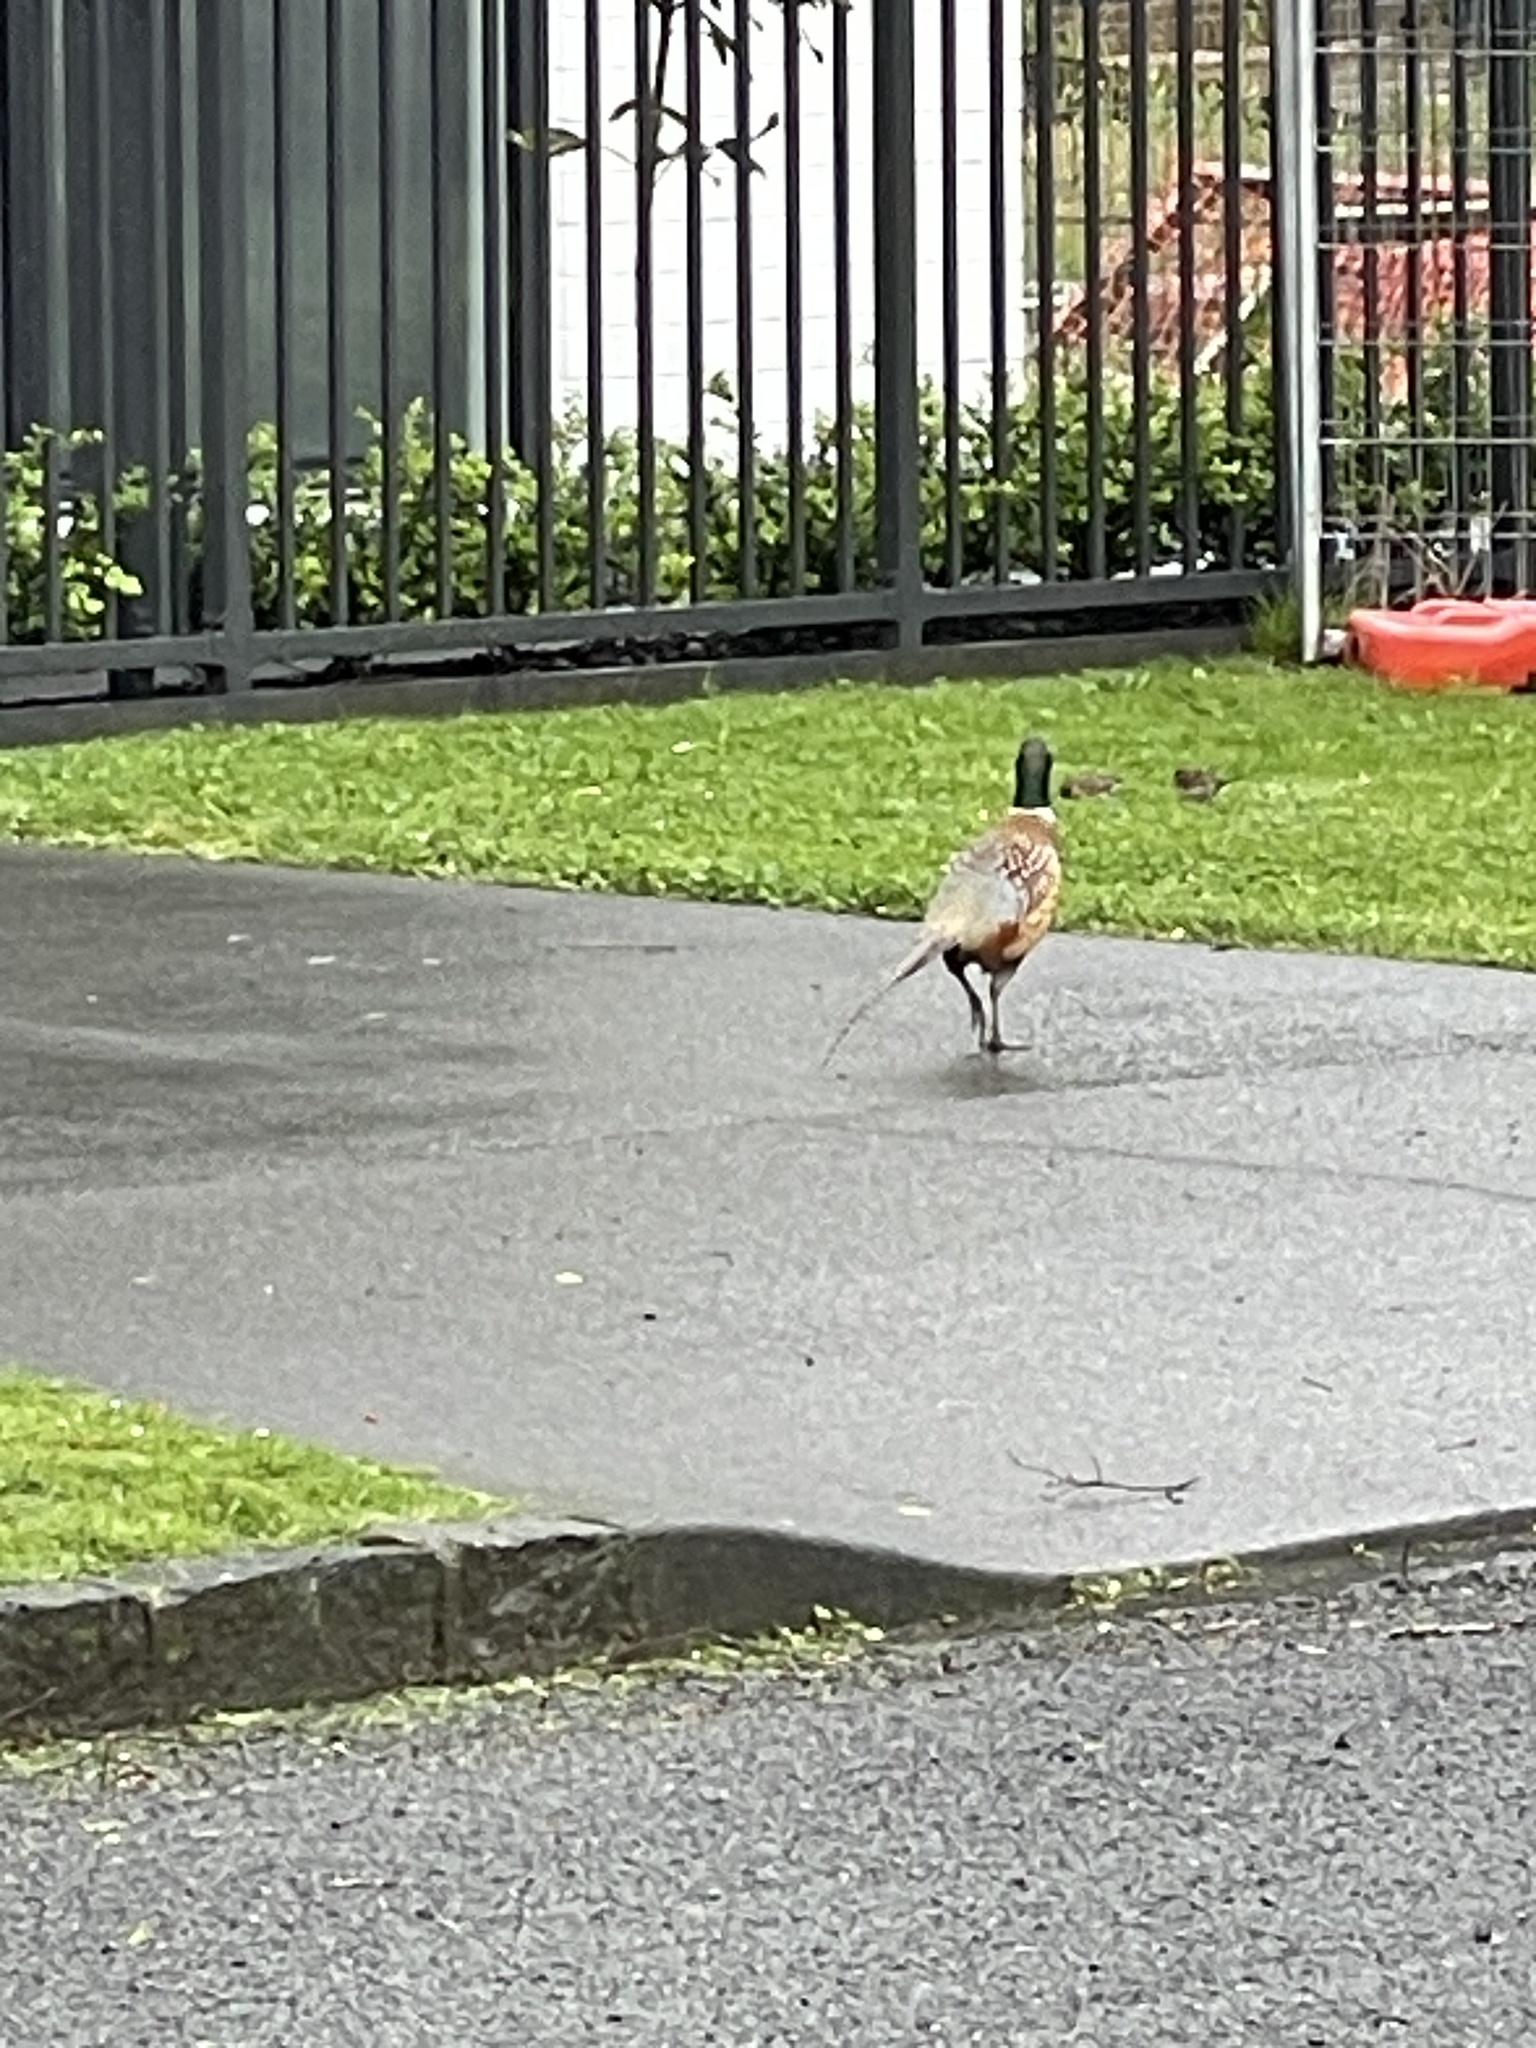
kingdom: Animalia
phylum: Chordata
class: Aves
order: Galliformes
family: Phasianidae
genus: Phasianus
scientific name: Phasianus colchicus
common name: Common pheasant
